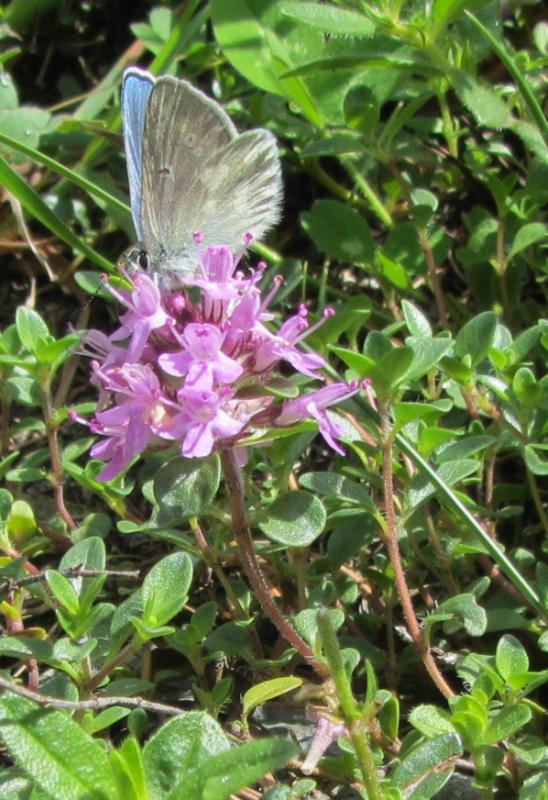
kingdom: Animalia
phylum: Arthropoda
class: Insecta
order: Lepidoptera
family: Lycaenidae
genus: Albulina
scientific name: Albulina orbitulus
